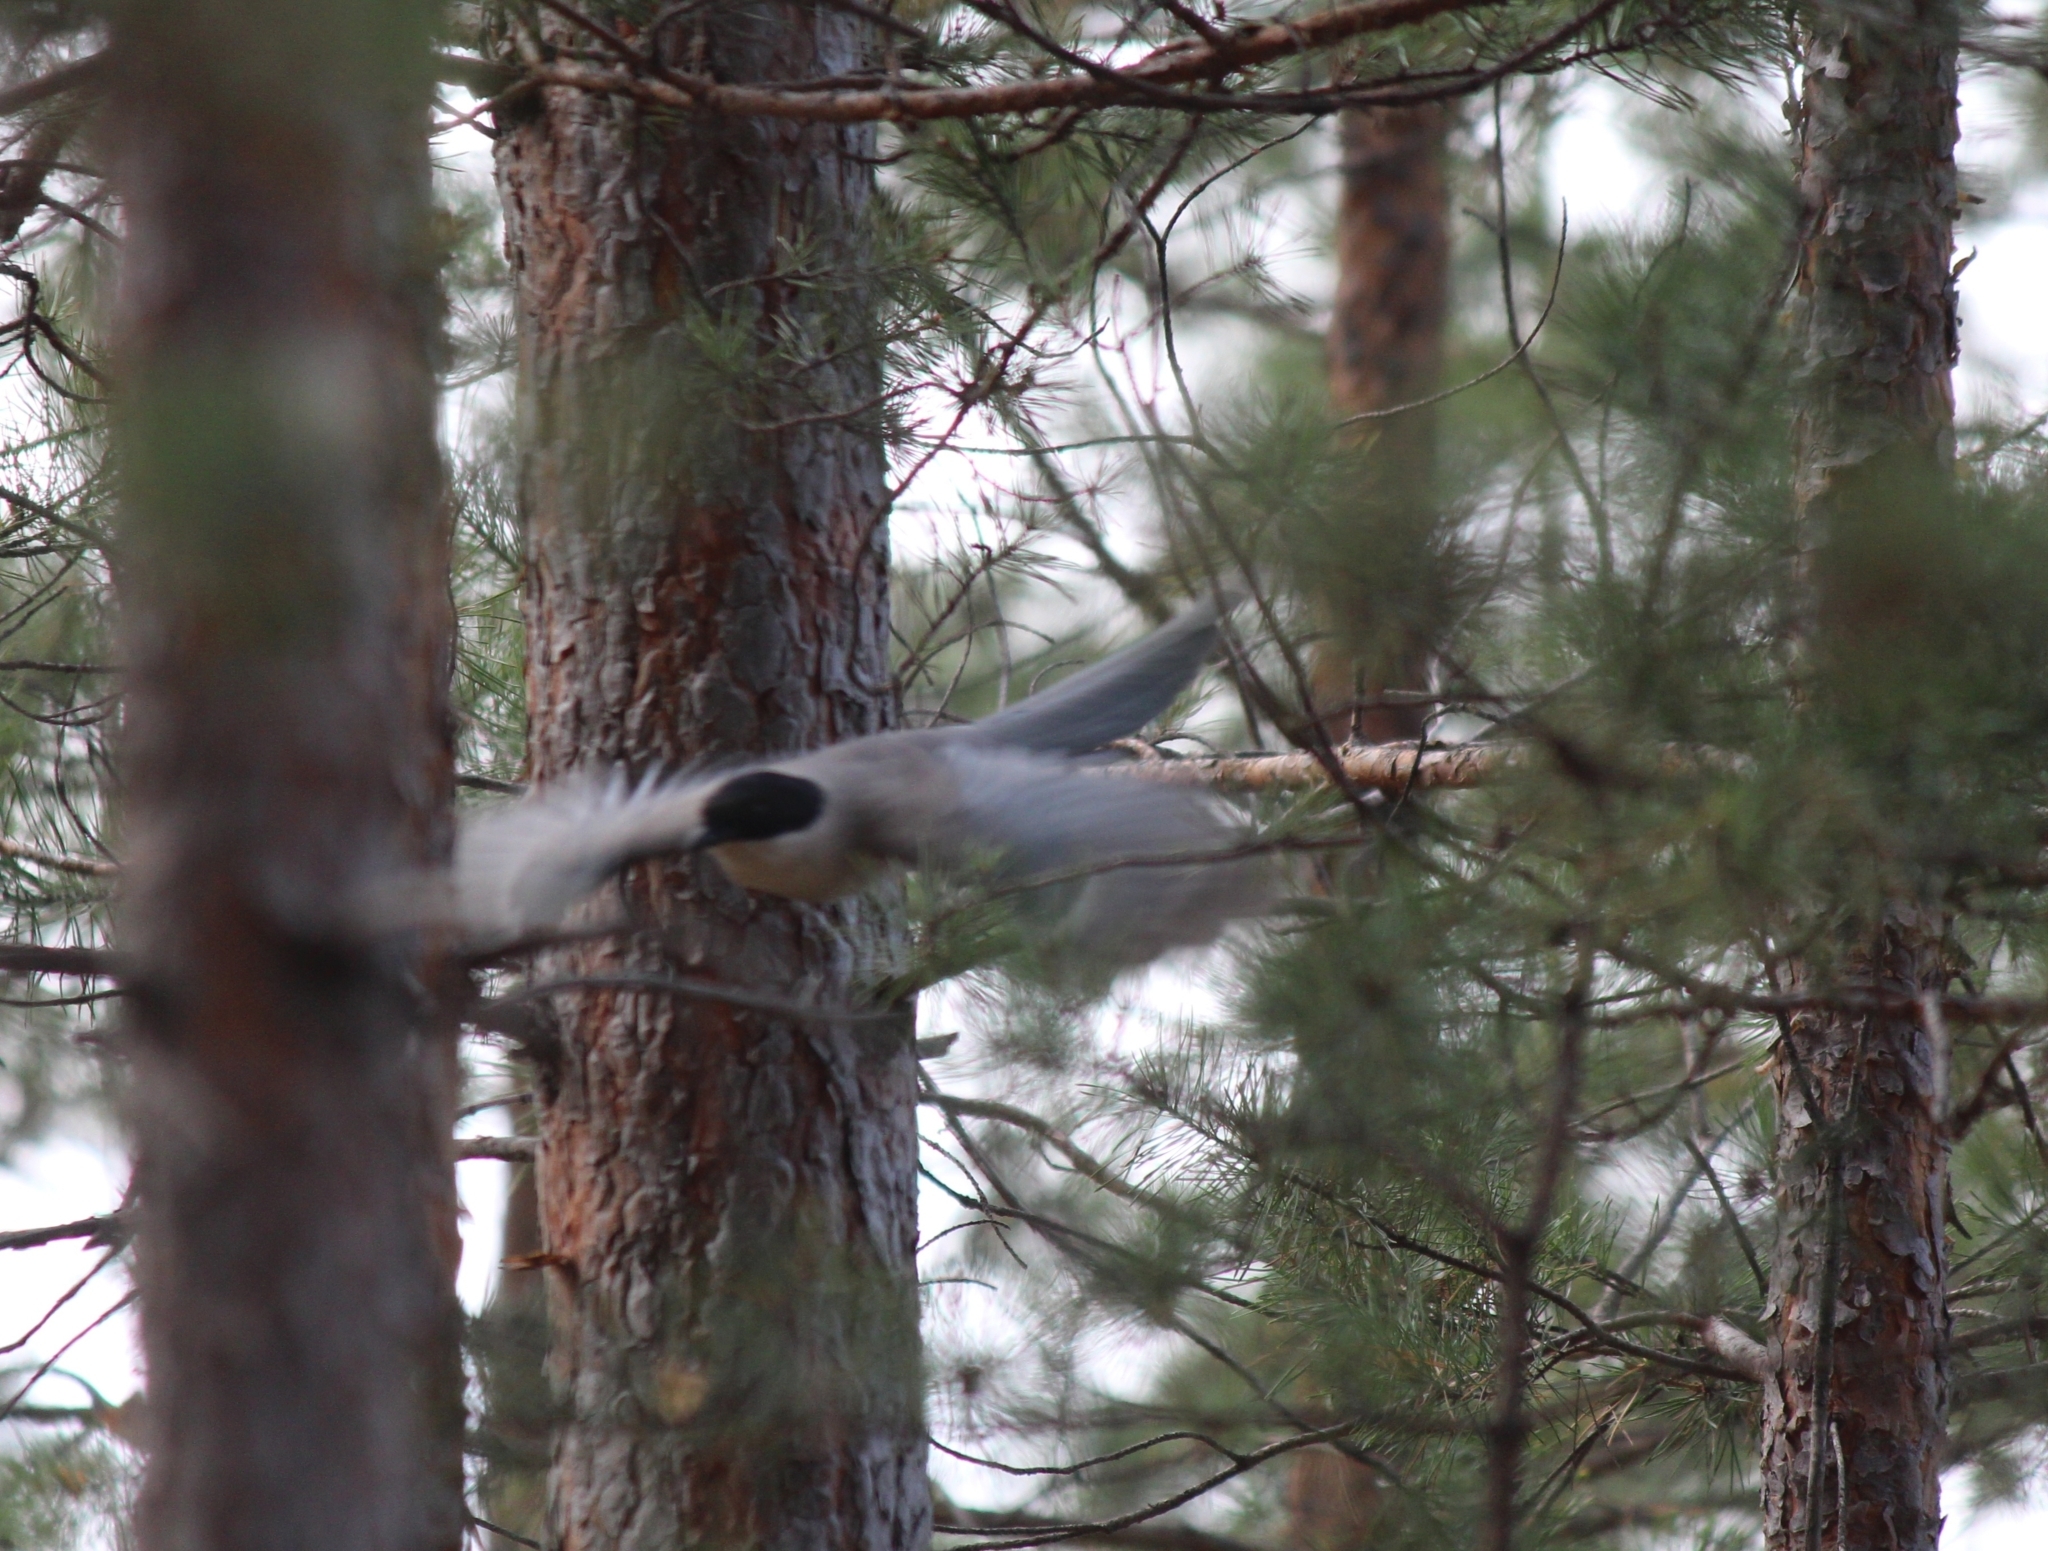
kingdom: Animalia
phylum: Chordata
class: Aves
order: Passeriformes
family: Corvidae
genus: Cyanopica
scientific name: Cyanopica cyanus
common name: Azure-winged magpie
